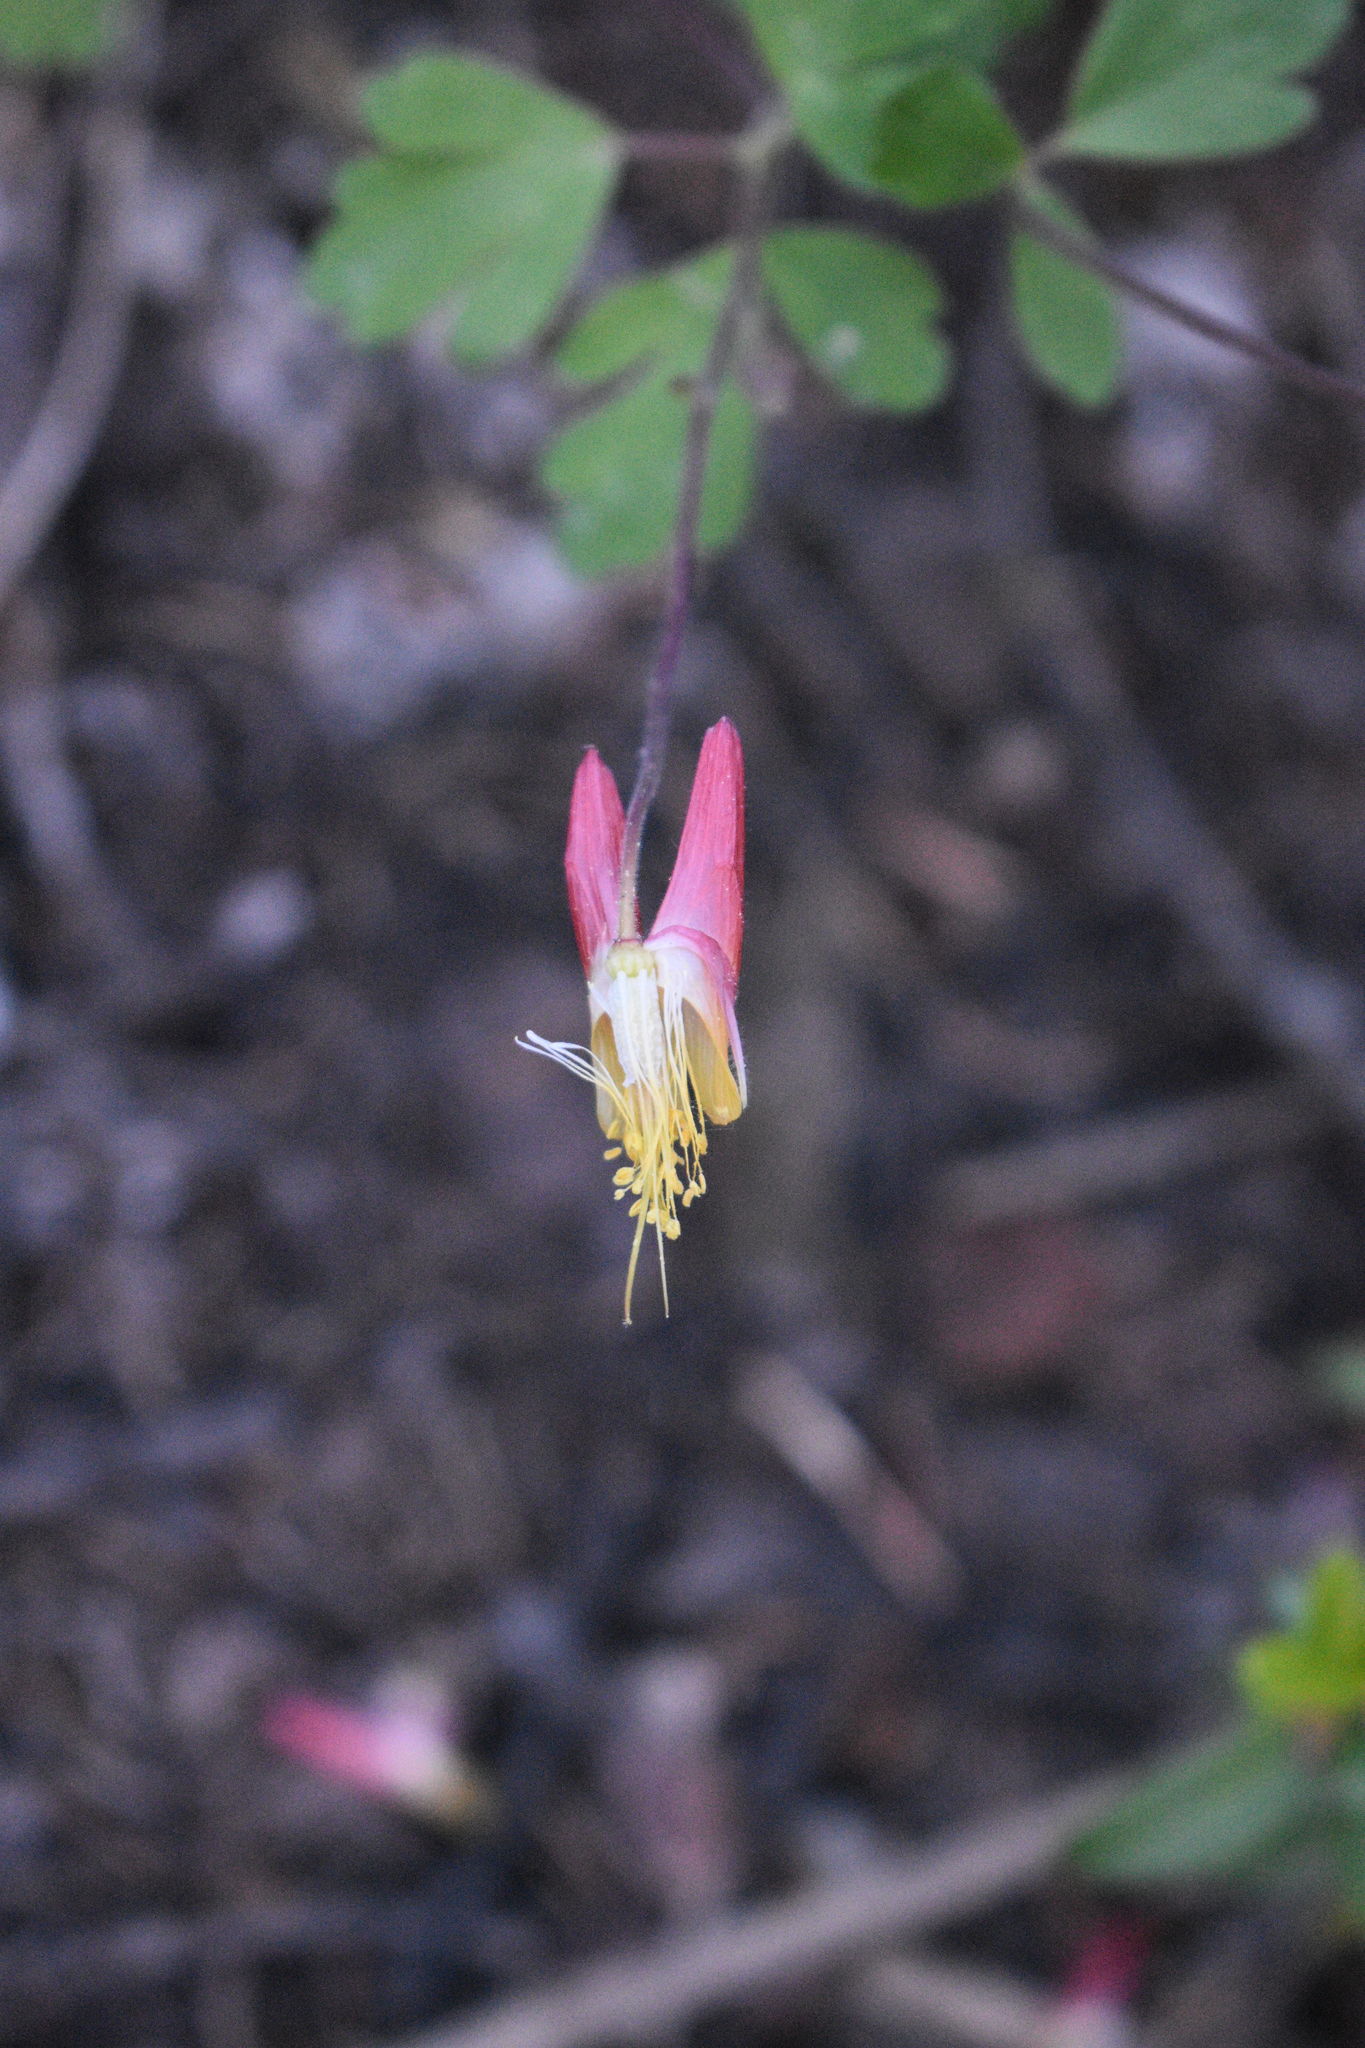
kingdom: Plantae
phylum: Tracheophyta
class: Magnoliopsida
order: Ranunculales
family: Ranunculaceae
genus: Aquilegia
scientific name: Aquilegia elegantula
